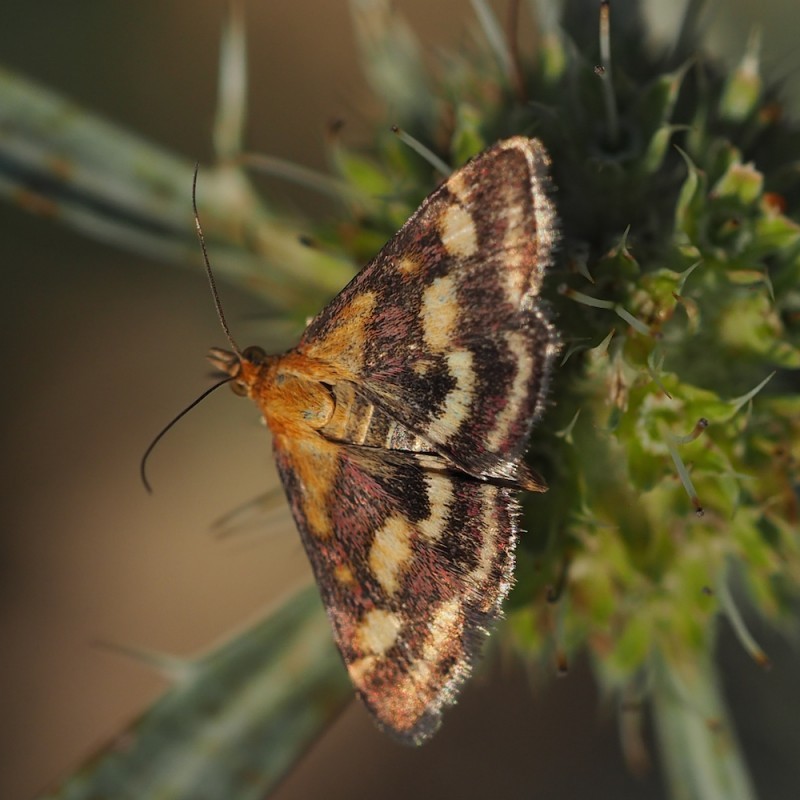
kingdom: Animalia
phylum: Arthropoda
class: Insecta
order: Lepidoptera
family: Crambidae
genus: Pyrausta
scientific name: Pyrausta purpuralis
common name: Common purple & gold
